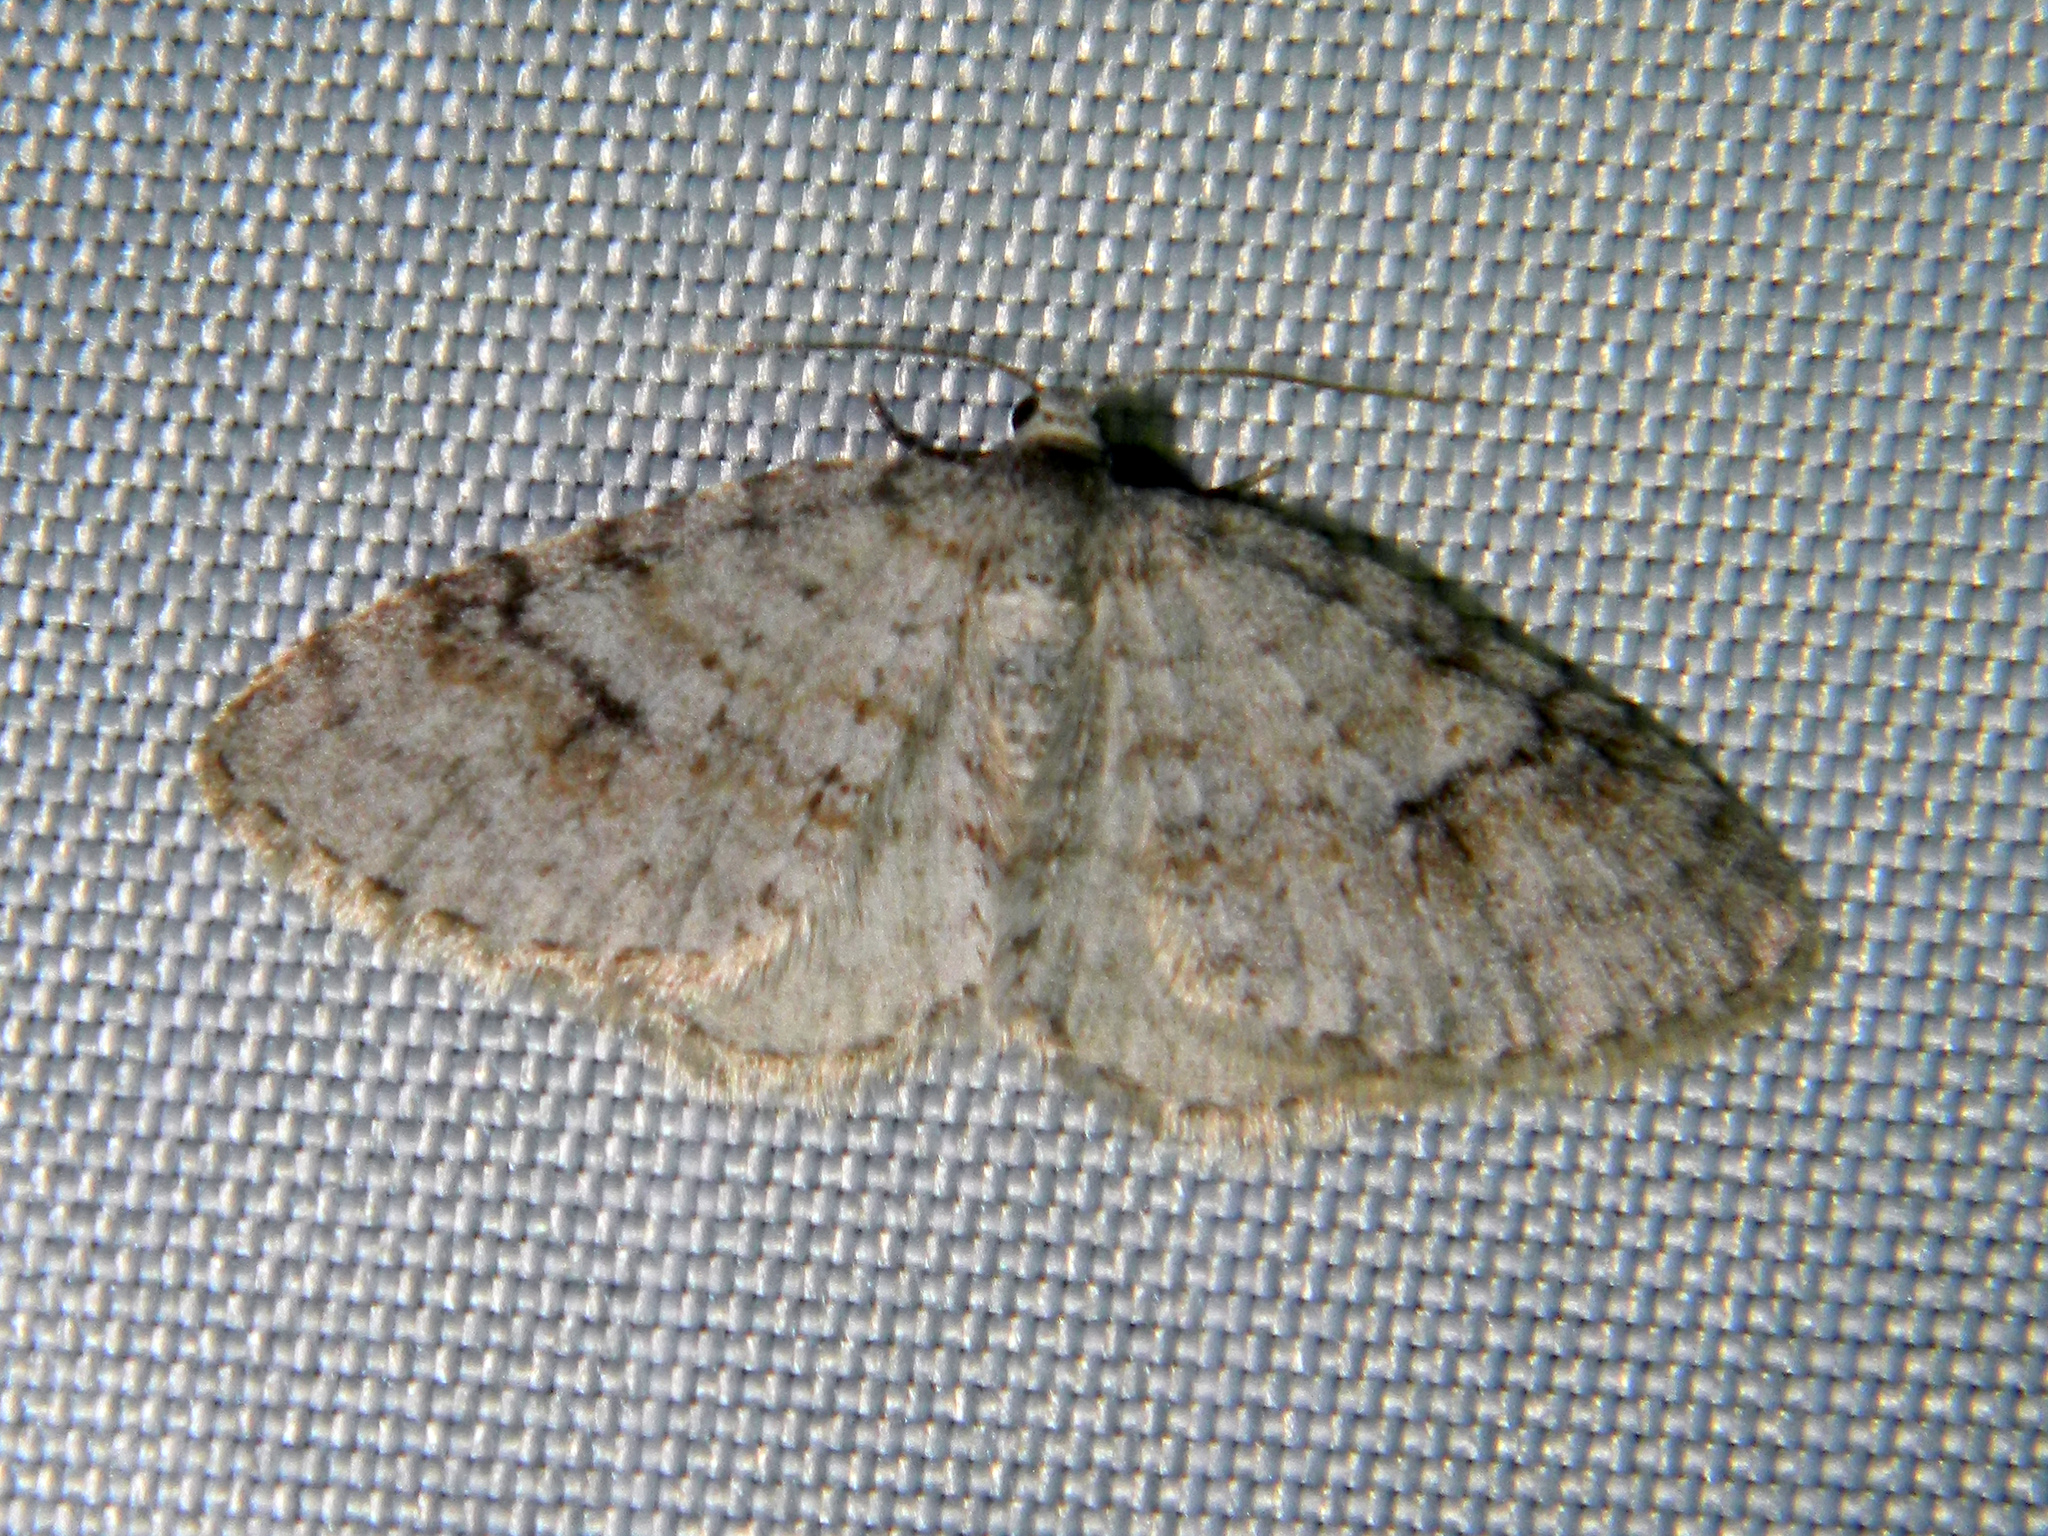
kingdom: Animalia
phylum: Arthropoda
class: Insecta
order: Lepidoptera
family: Geometridae
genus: Venusia
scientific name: Venusia comptaria
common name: Brown-shaded carpet
